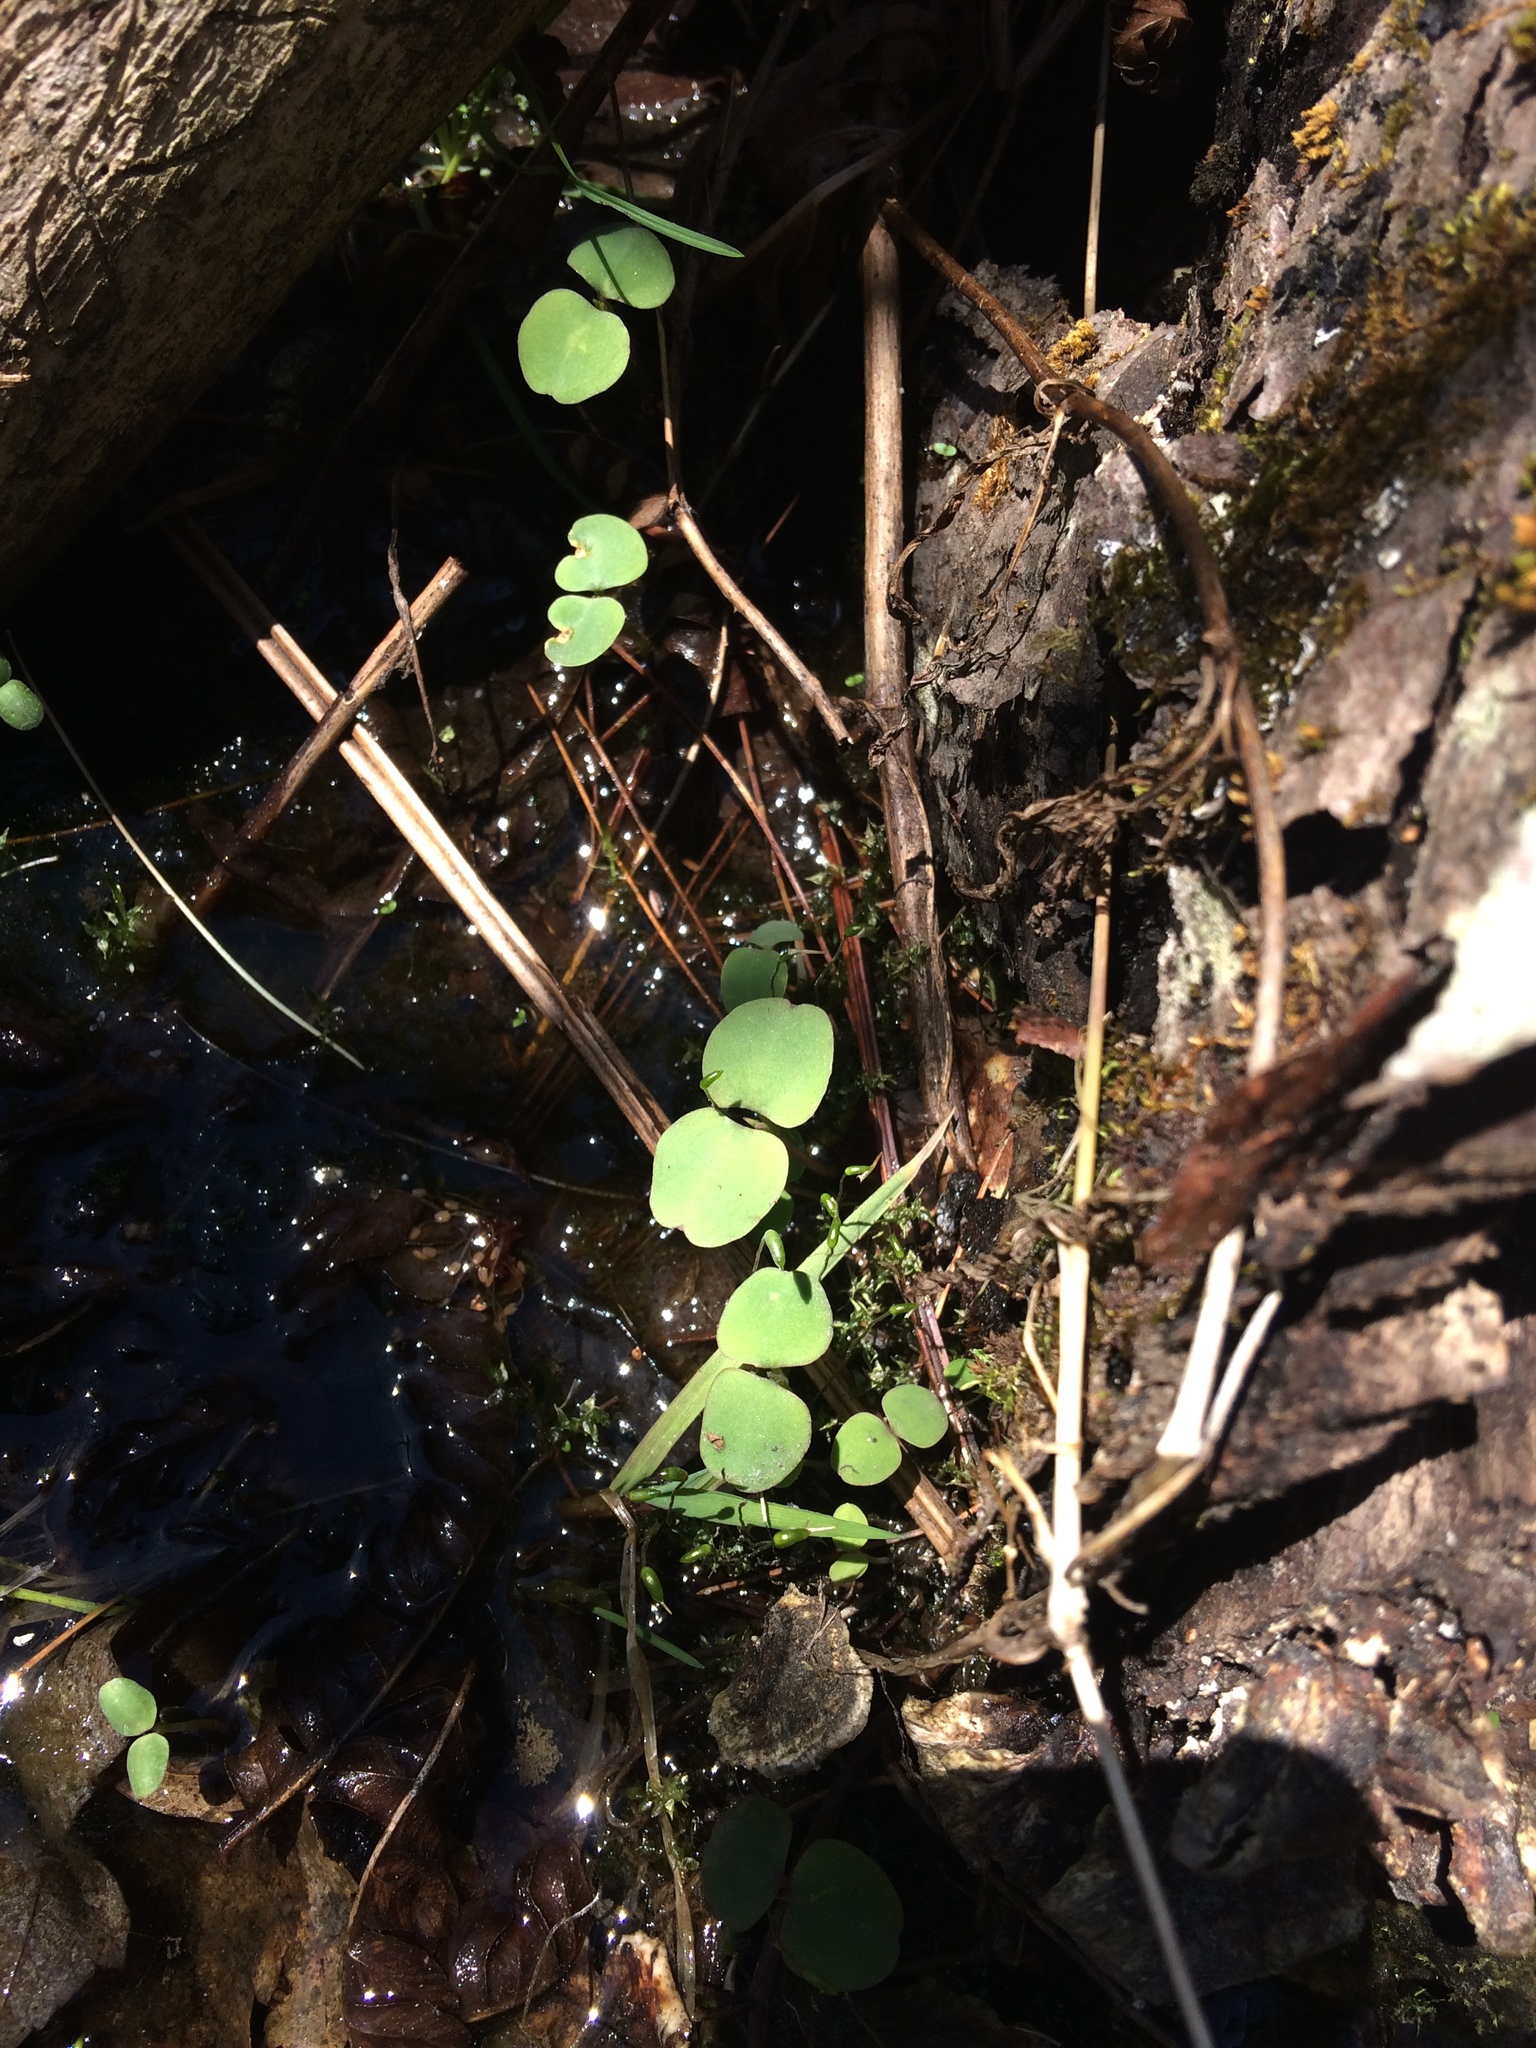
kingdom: Plantae
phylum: Tracheophyta
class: Magnoliopsida
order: Ericales
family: Balsaminaceae
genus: Impatiens
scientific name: Impatiens capensis
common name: Orange balsam
